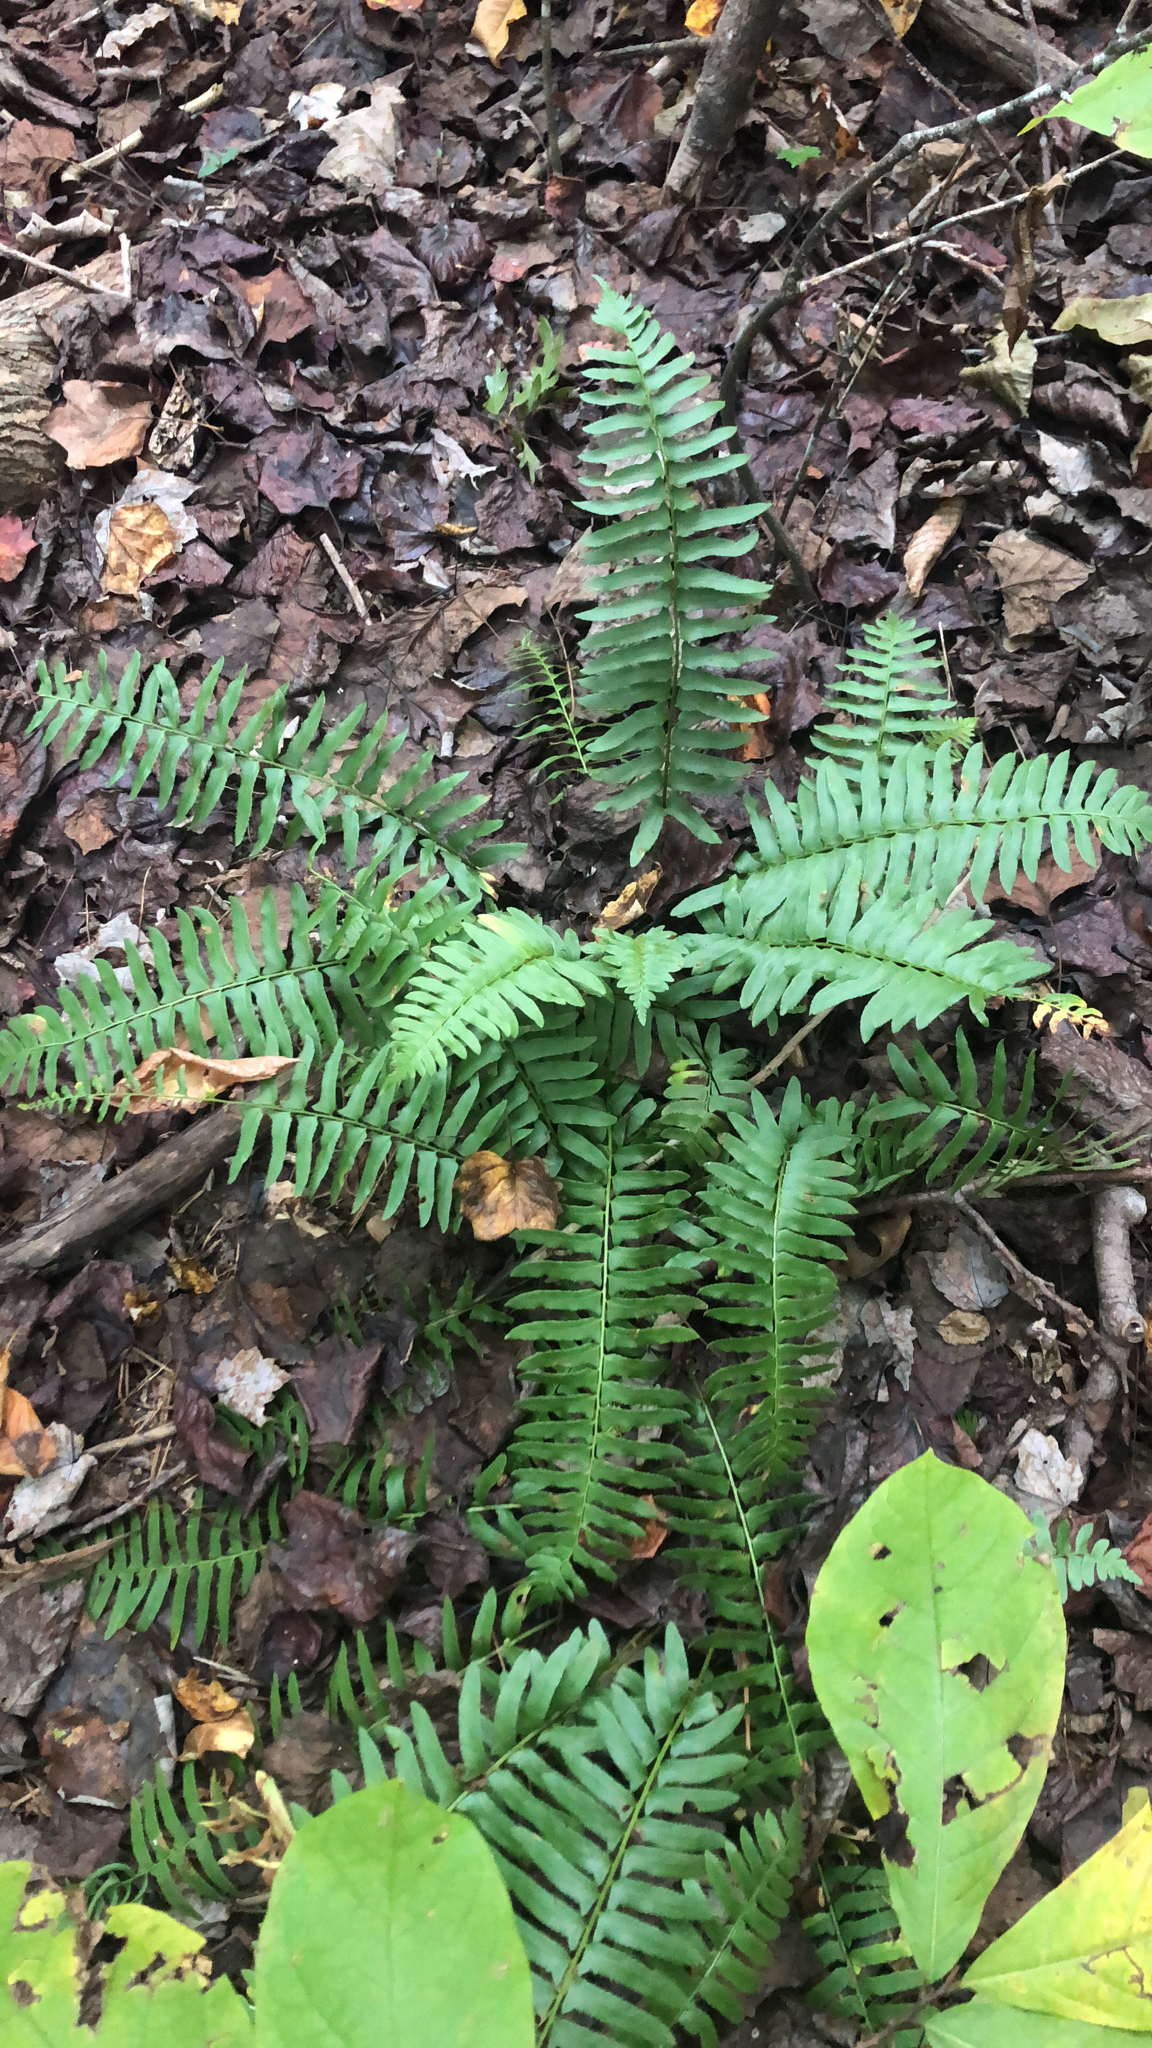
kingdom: Plantae
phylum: Tracheophyta
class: Polypodiopsida
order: Polypodiales
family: Dryopteridaceae
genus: Polystichum
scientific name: Polystichum acrostichoides
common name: Christmas fern
